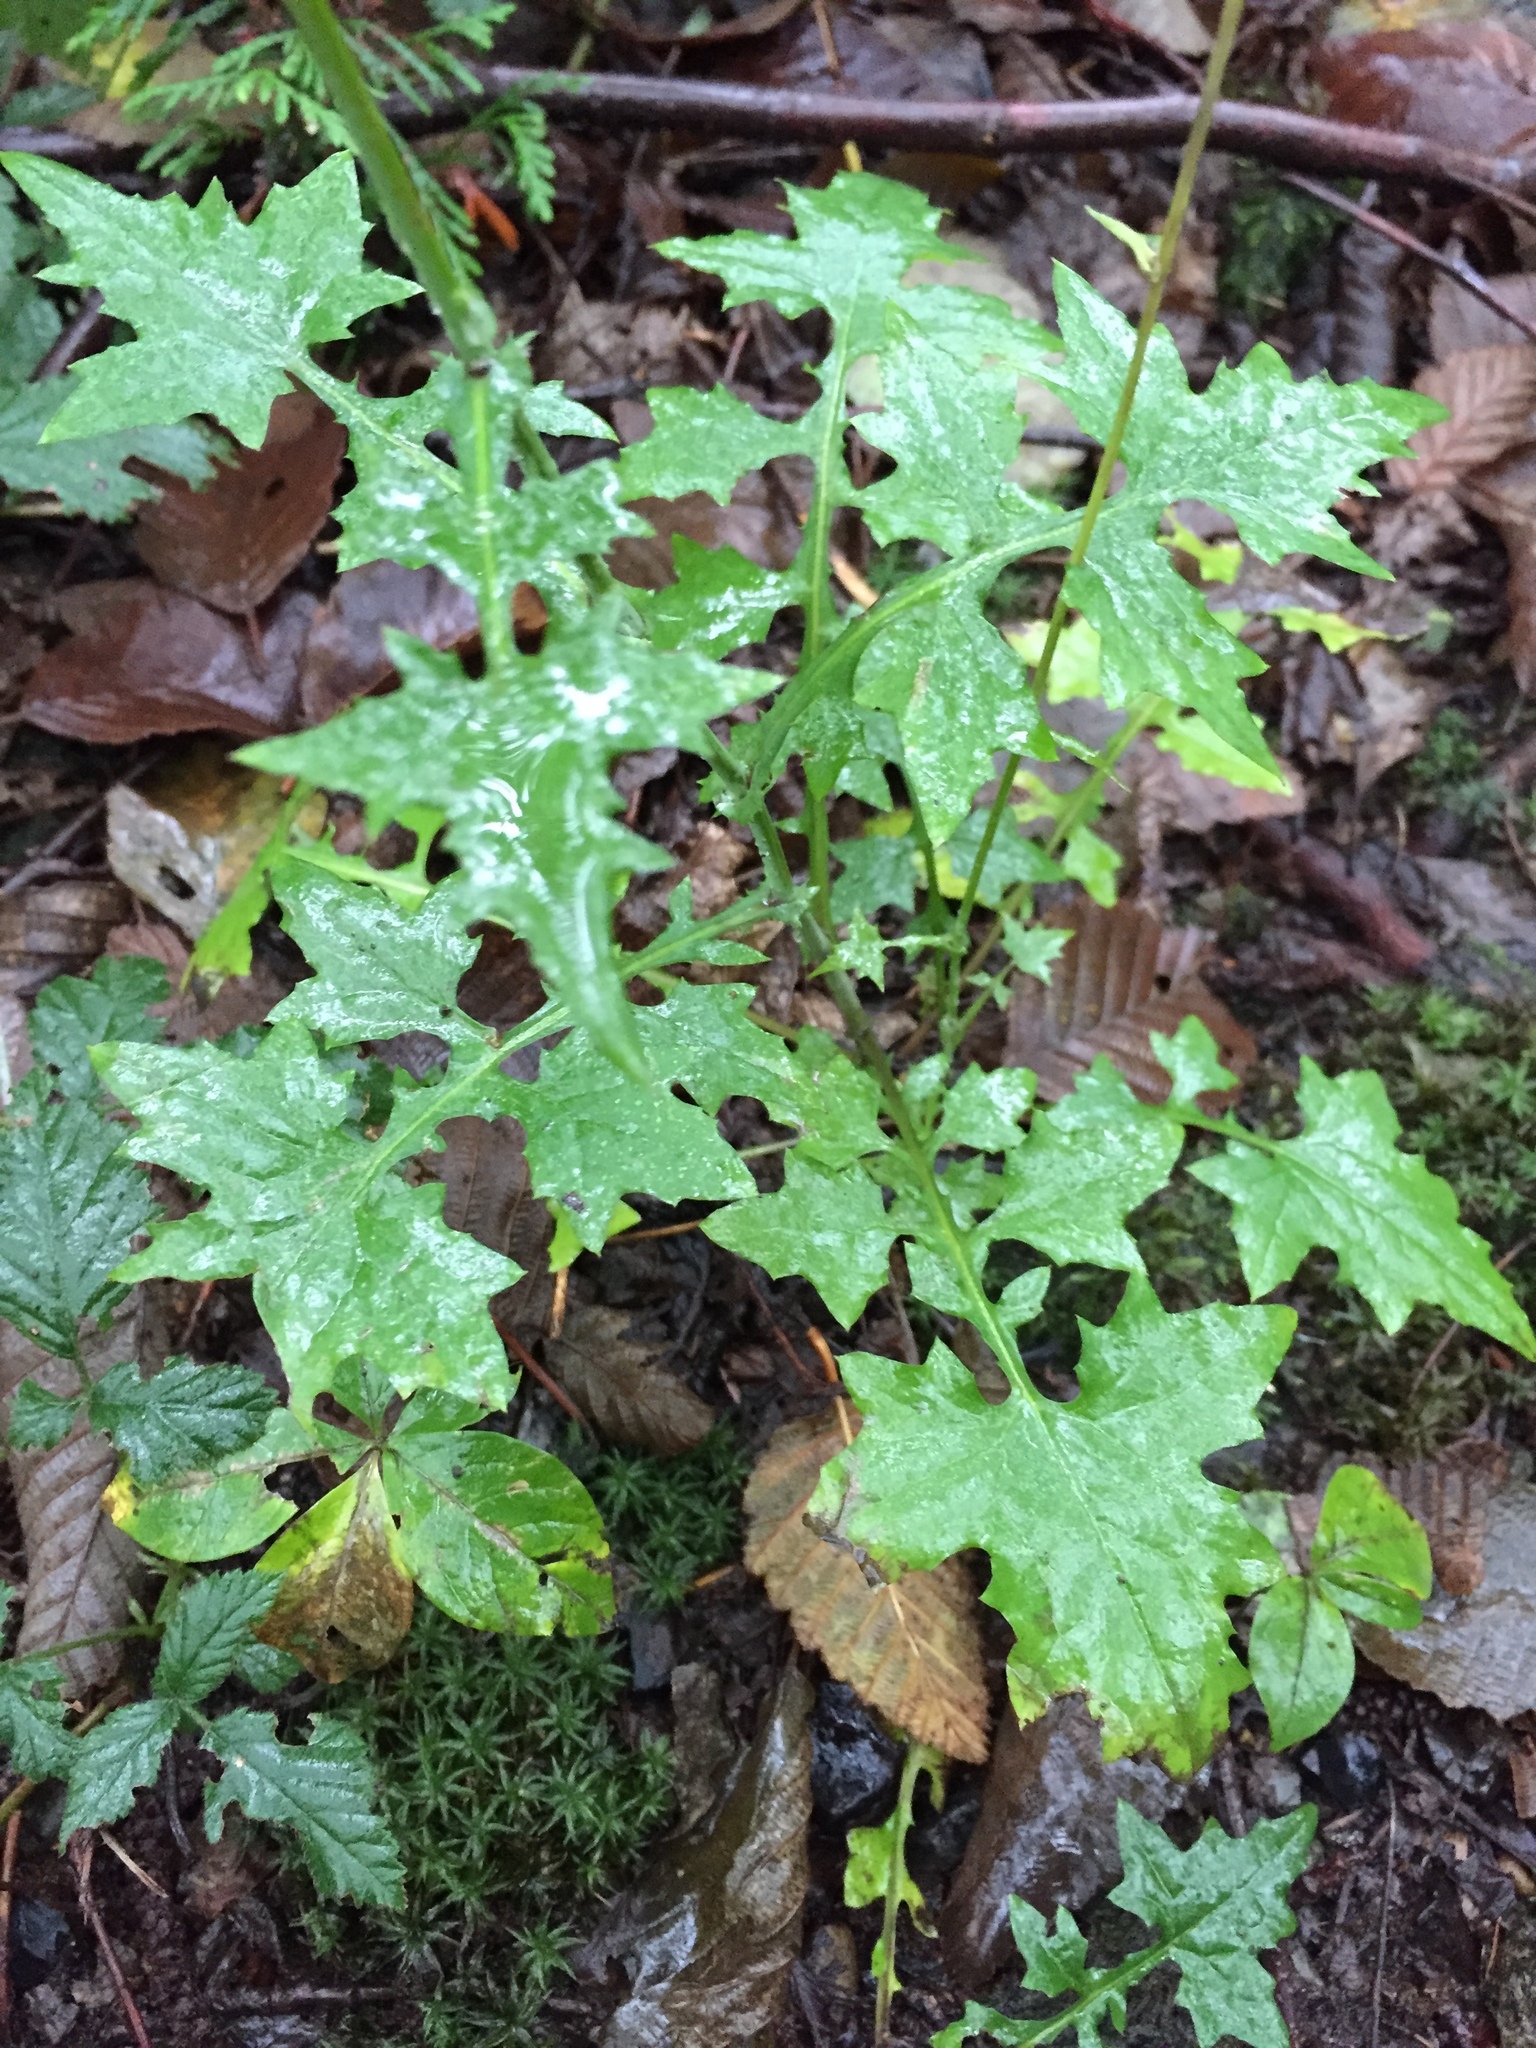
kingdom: Plantae
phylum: Tracheophyta
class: Magnoliopsida
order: Asterales
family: Asteraceae
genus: Mycelis
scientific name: Mycelis muralis
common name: Wall lettuce
